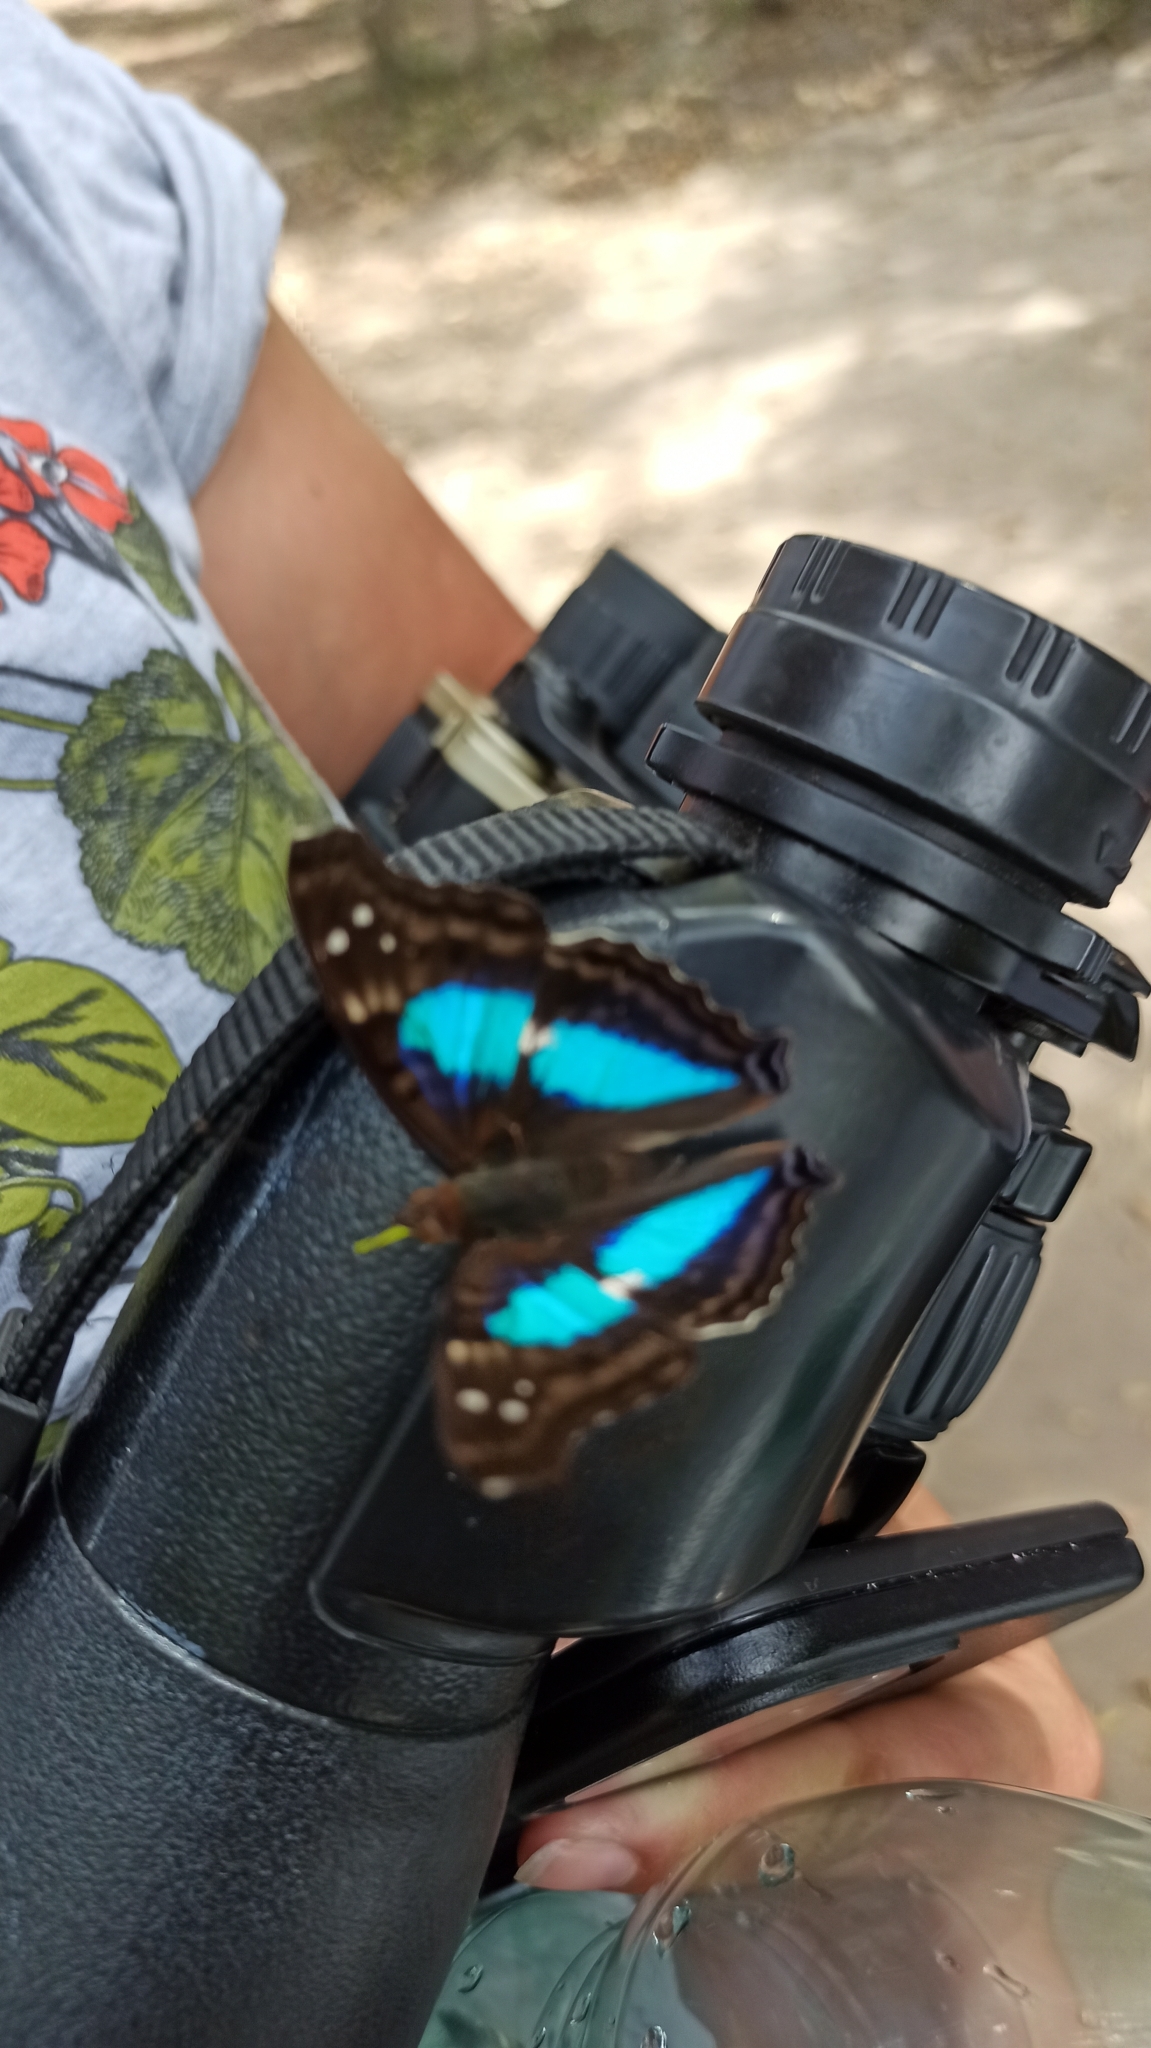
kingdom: Animalia
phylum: Arthropoda
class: Insecta
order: Lepidoptera
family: Nymphalidae
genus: Doxocopa
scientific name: Doxocopa laurentia
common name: Turquoise emperor
